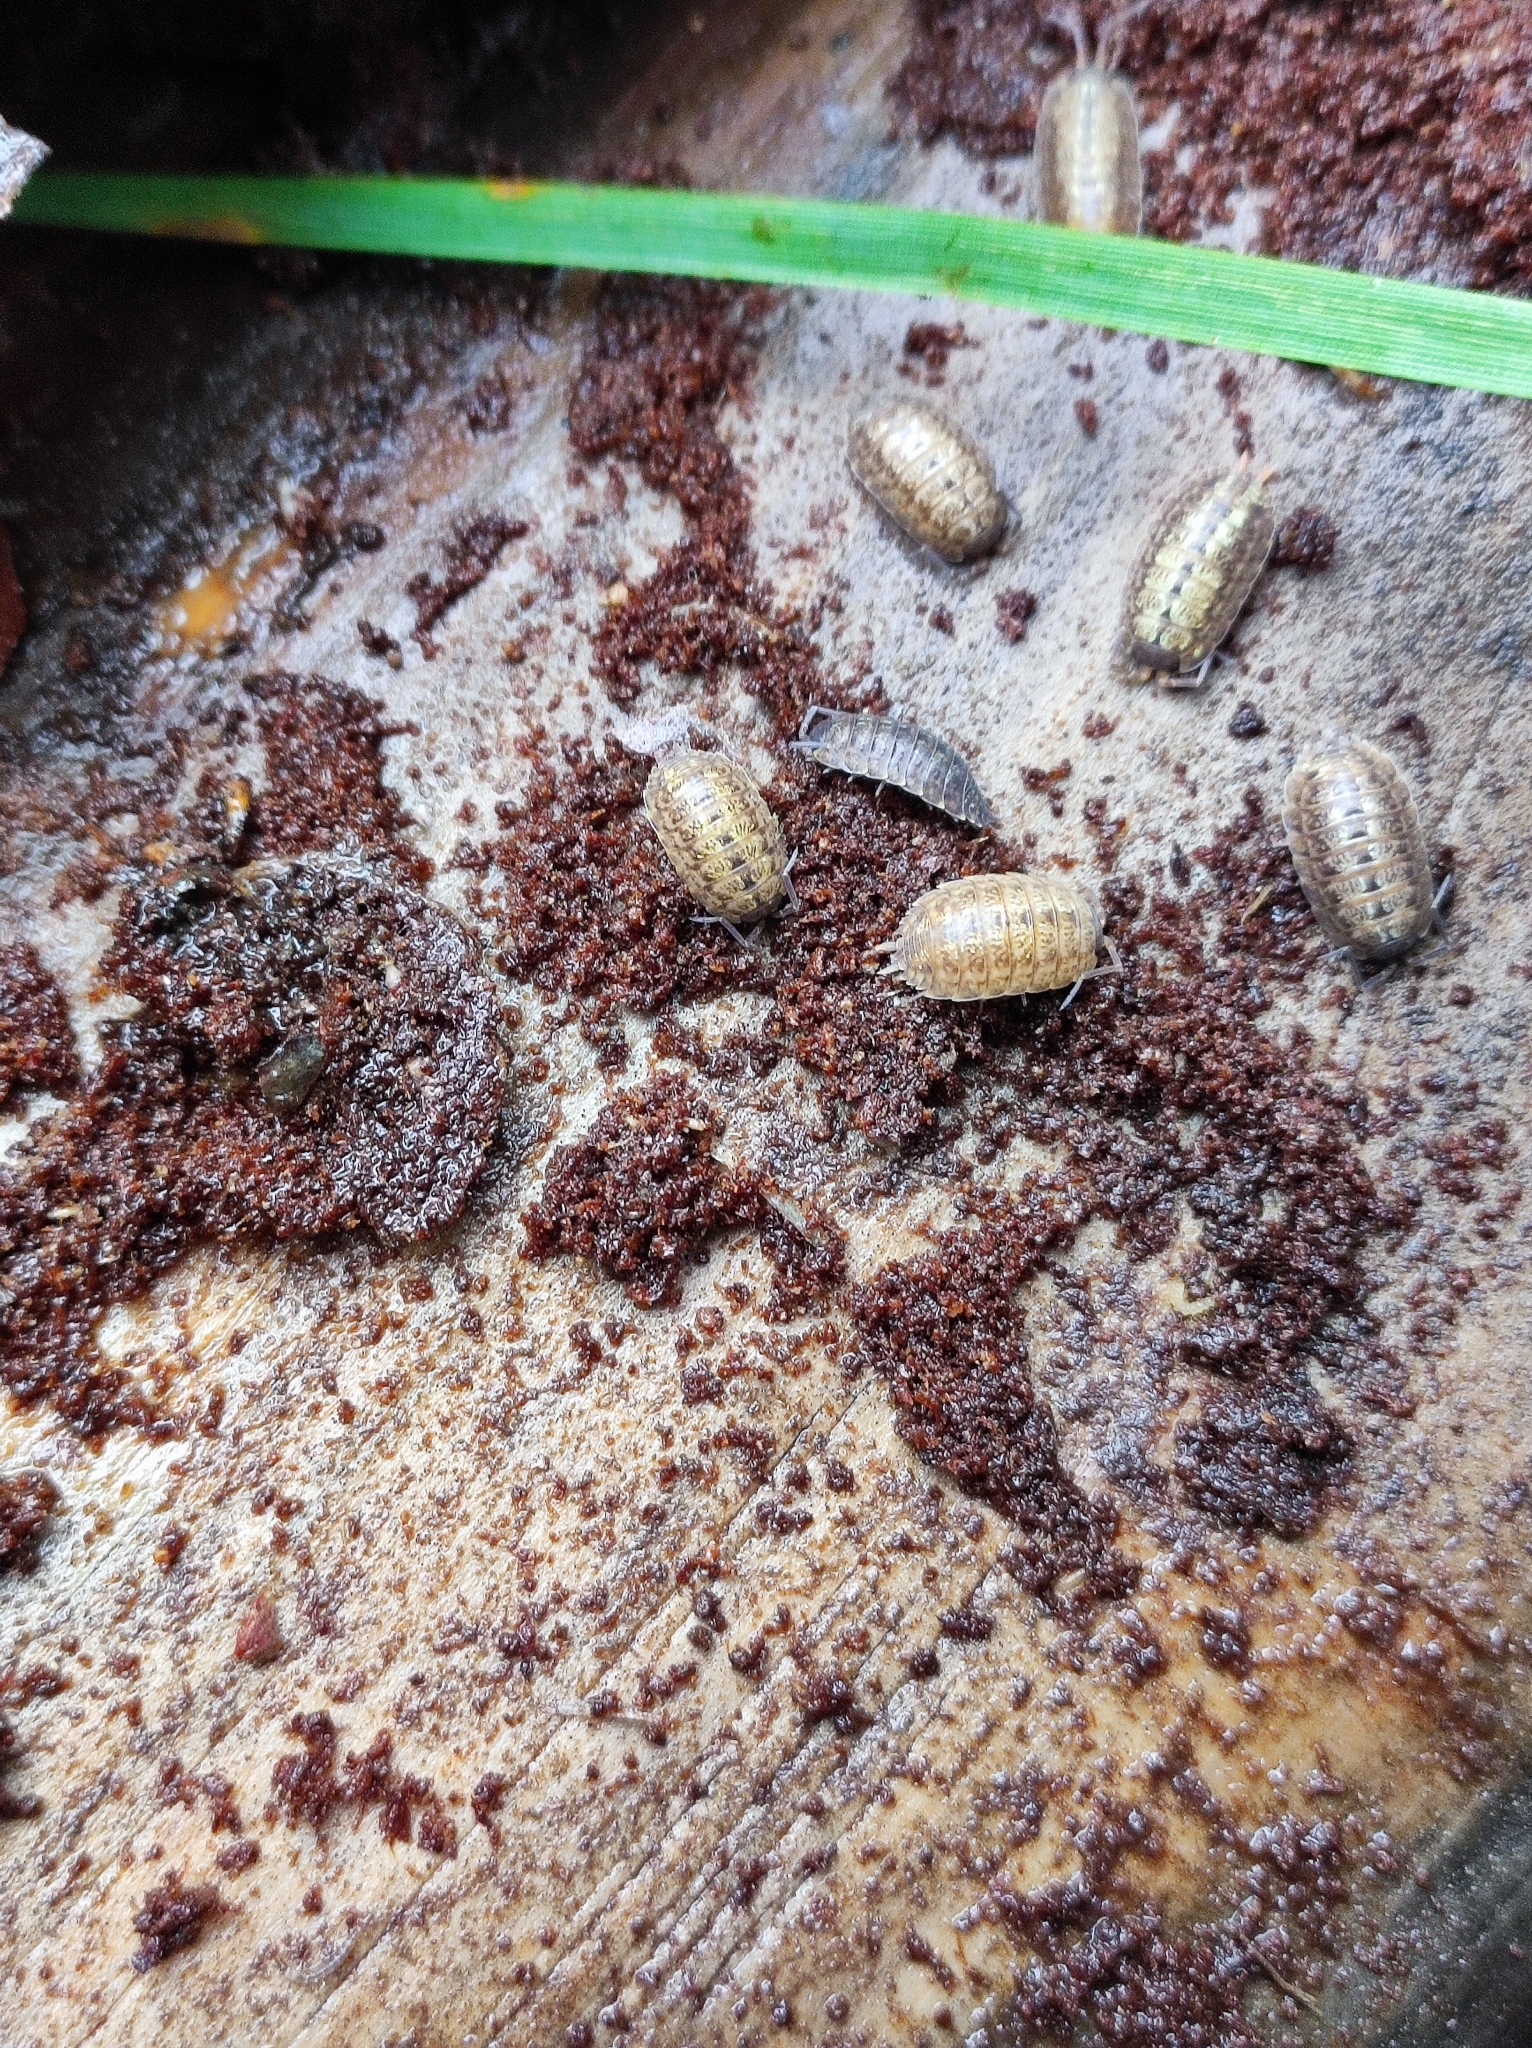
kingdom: Animalia
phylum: Arthropoda
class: Malacostraca
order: Isopoda
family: Porcellionidae
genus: Porcellio
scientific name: Porcellio monticola
